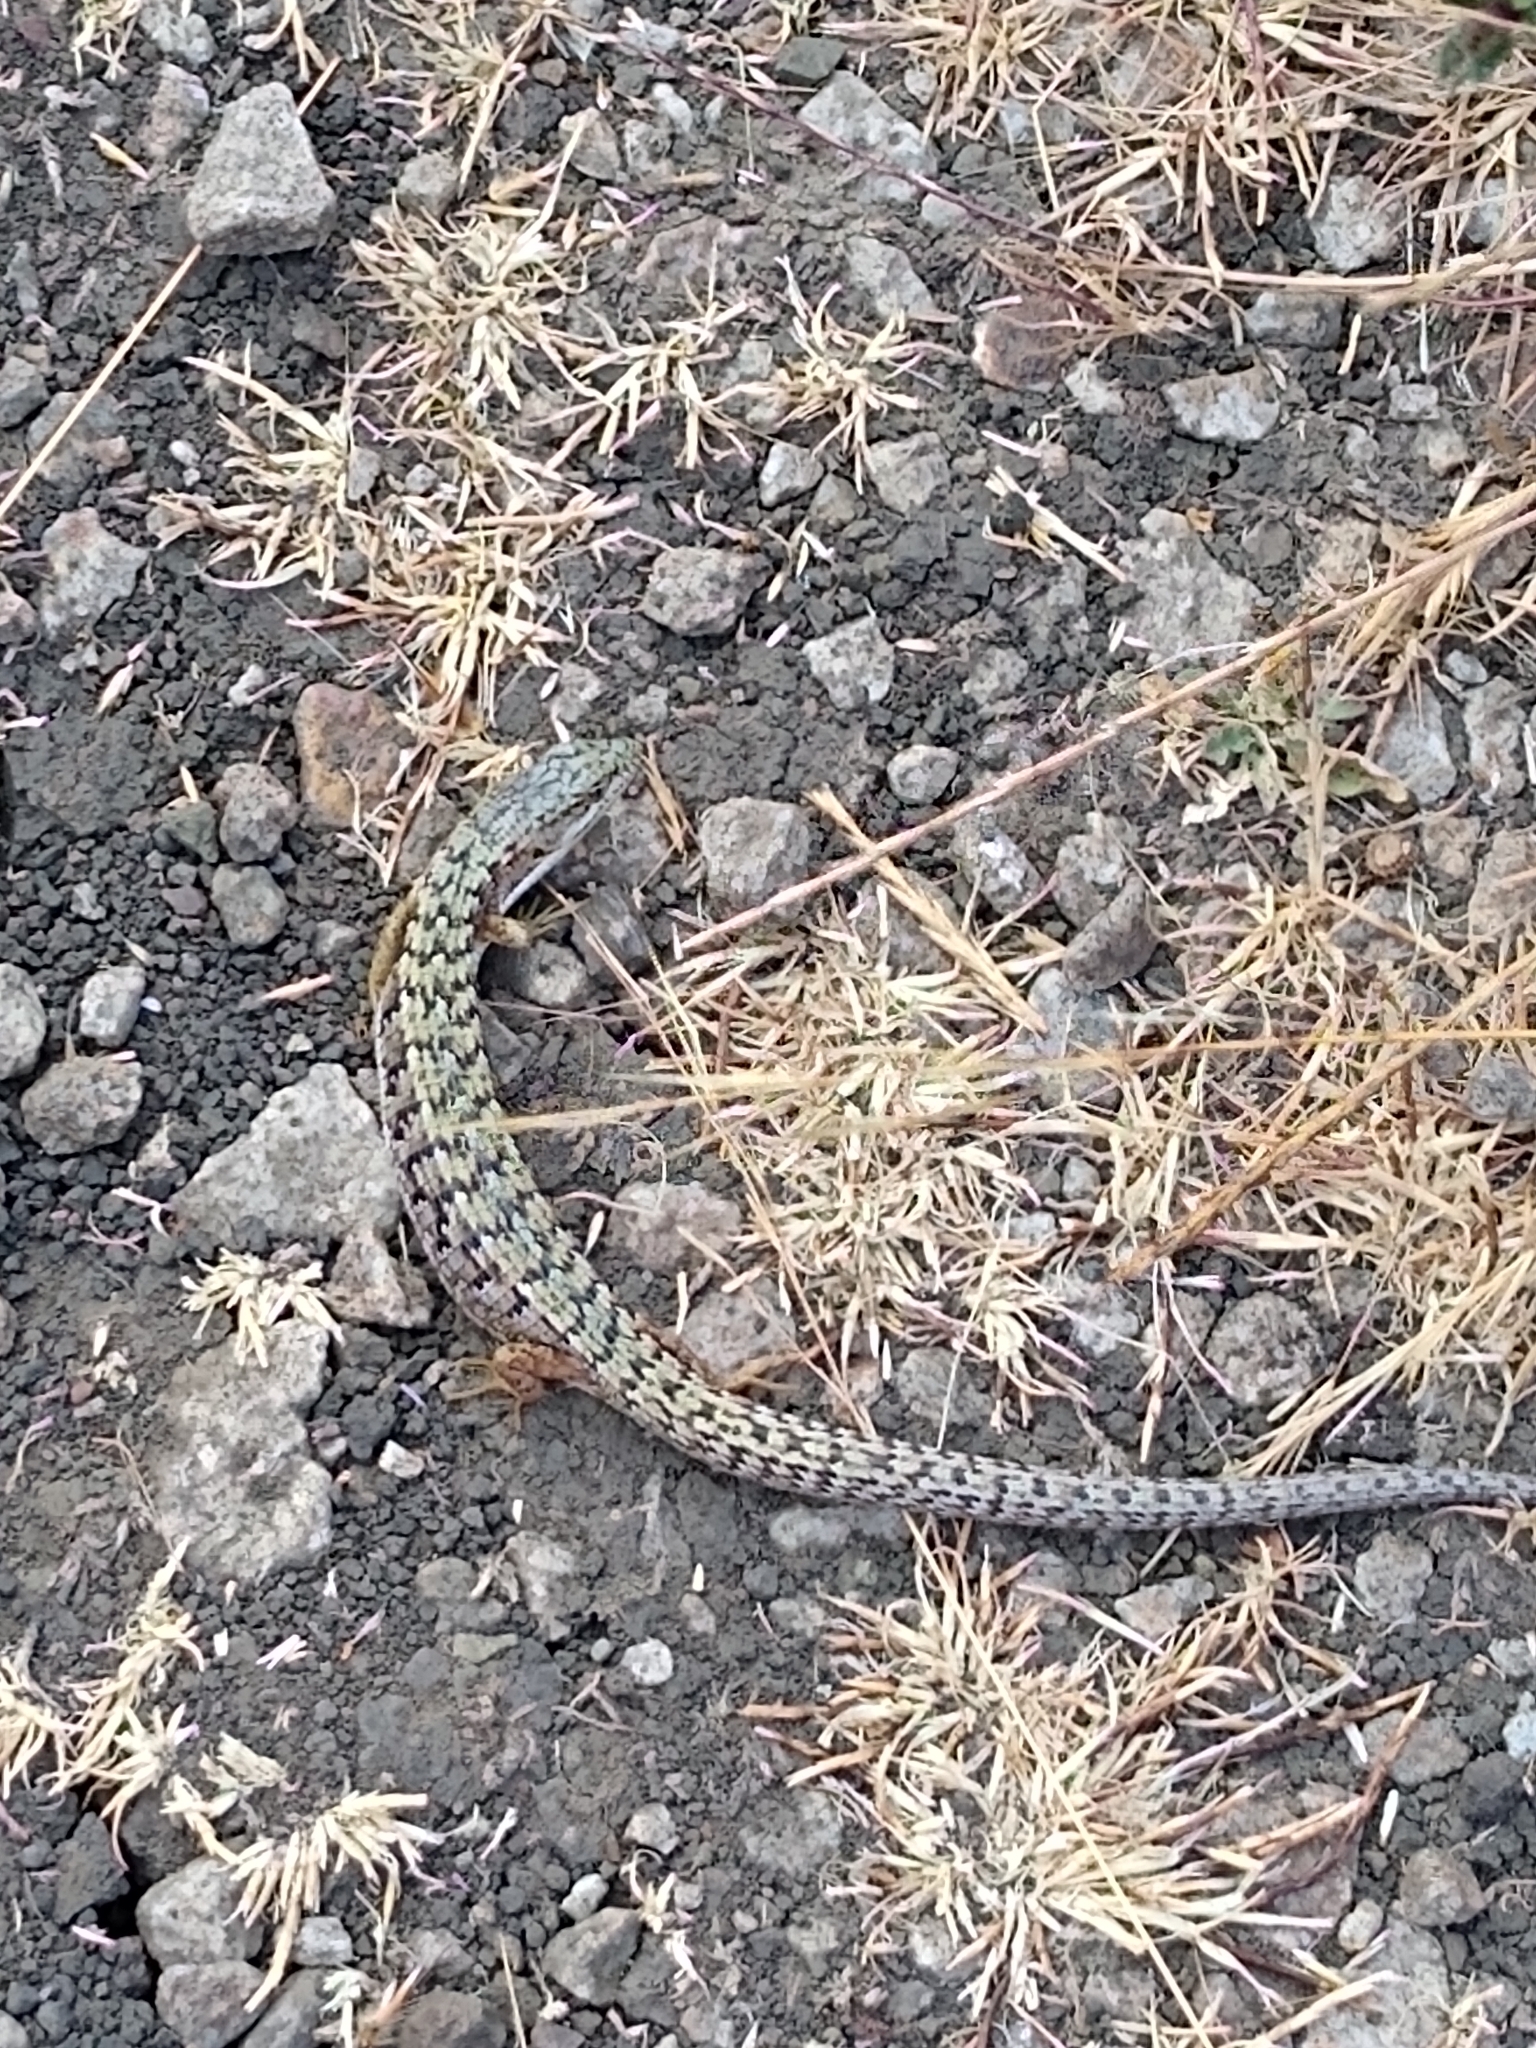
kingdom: Animalia
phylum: Chordata
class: Squamata
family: Anguidae
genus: Elgaria
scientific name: Elgaria multicarinata
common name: Southern alligator lizard
